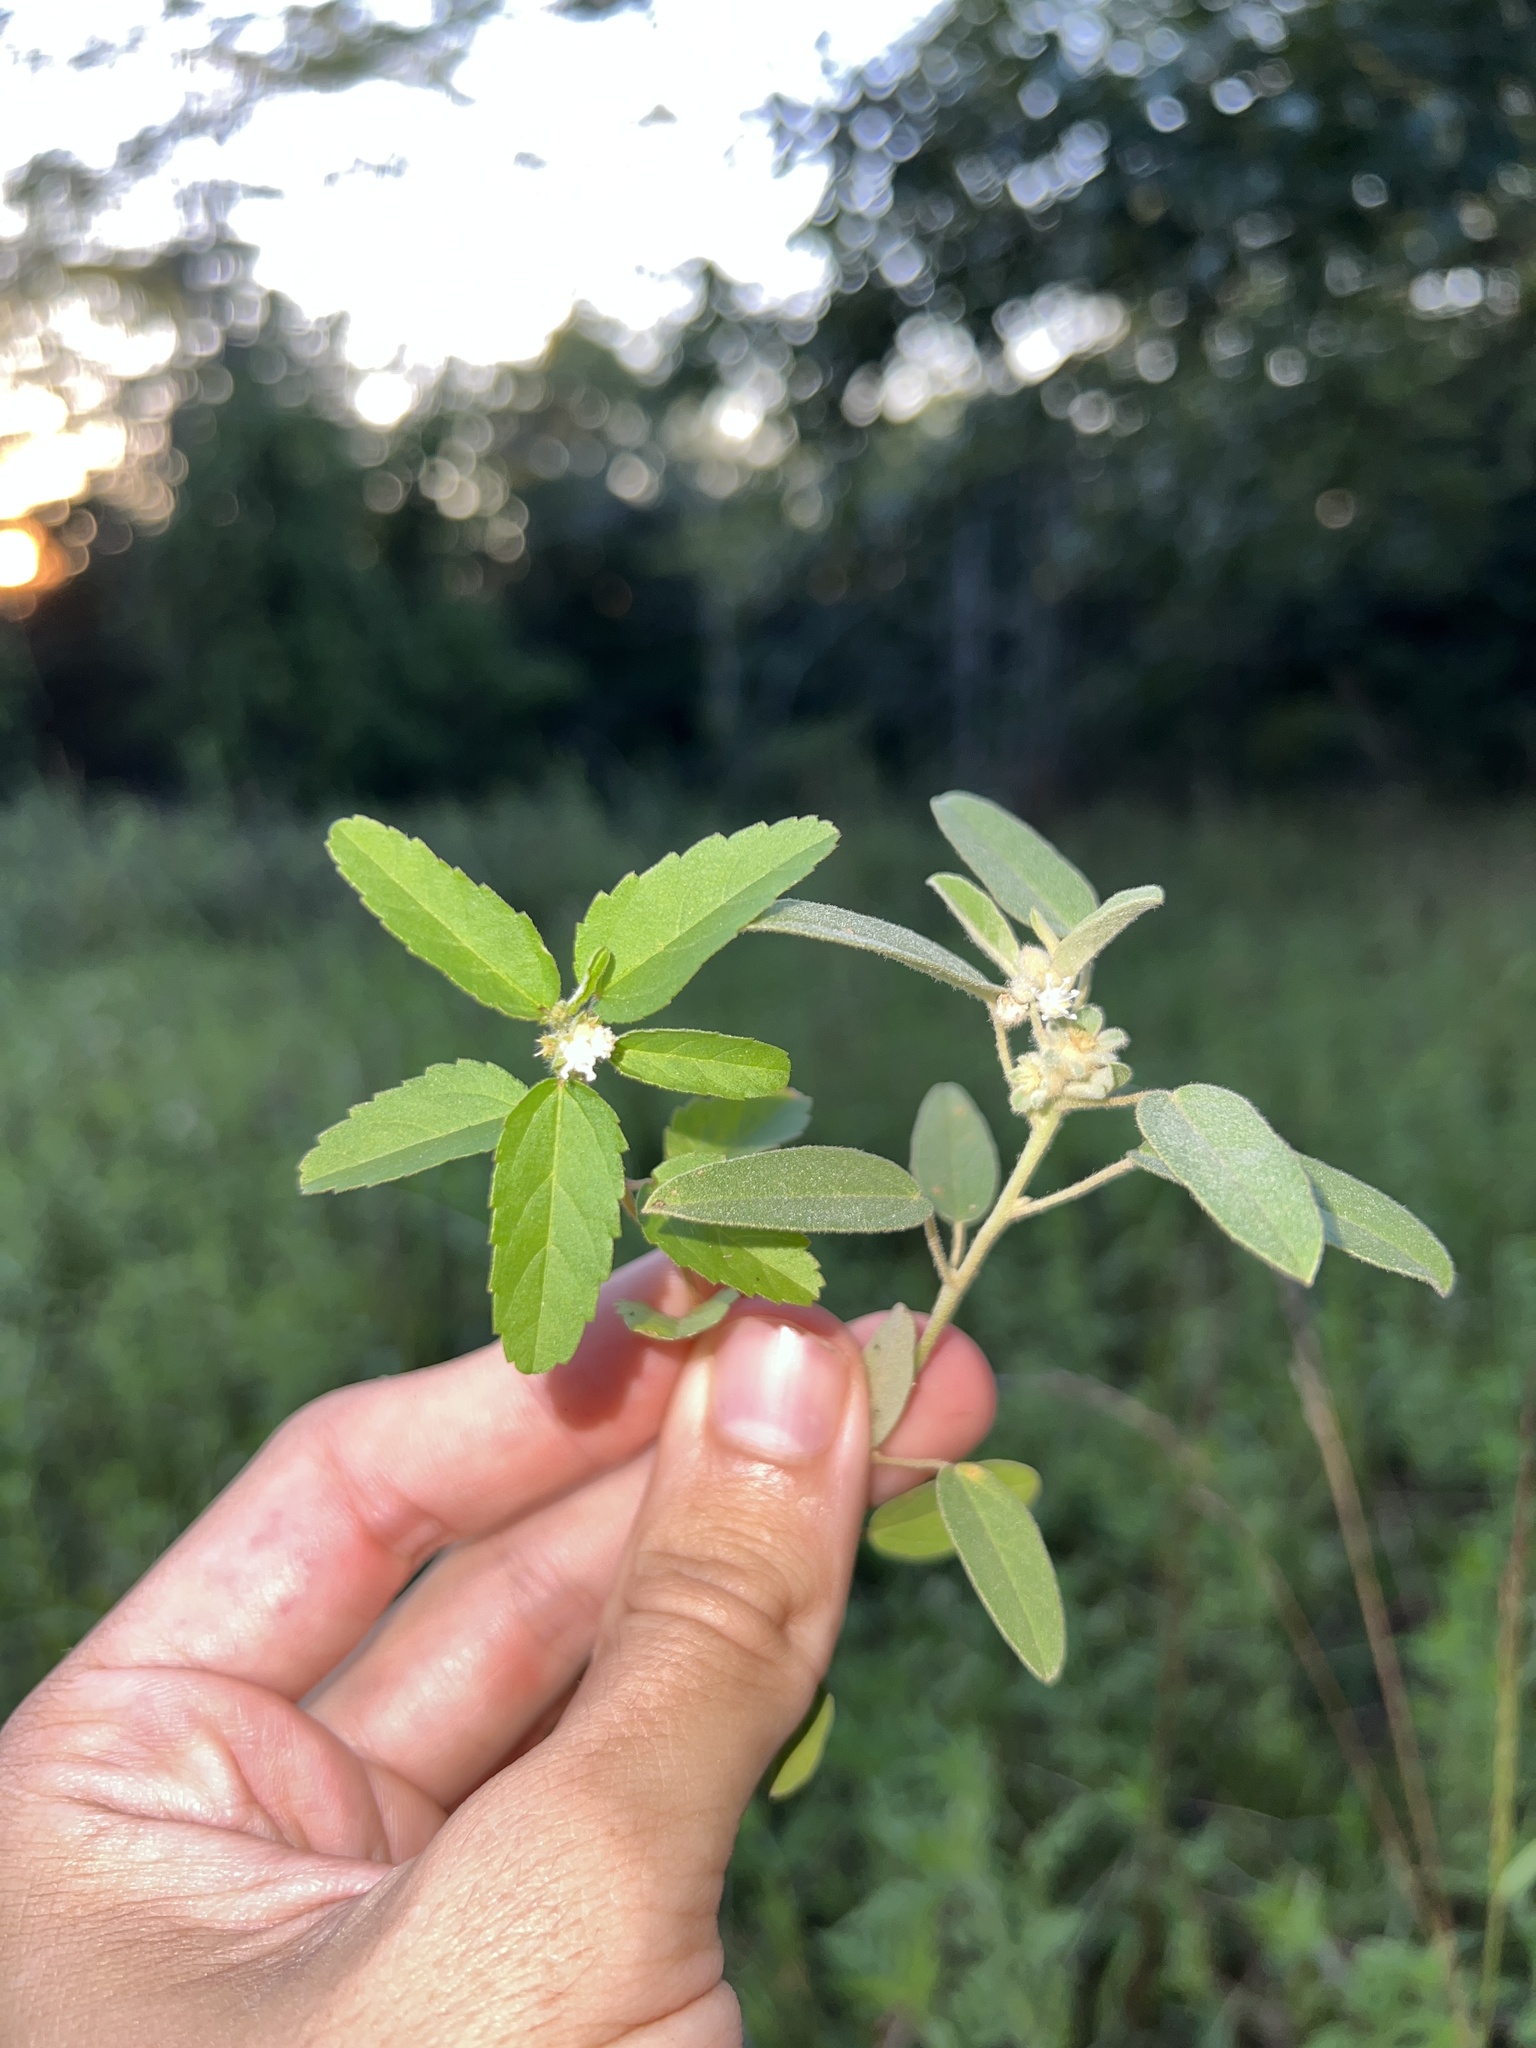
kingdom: Plantae
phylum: Tracheophyta
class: Magnoliopsida
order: Malpighiales
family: Euphorbiaceae
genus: Croton
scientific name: Croton glandulosus
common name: Tropic croton
